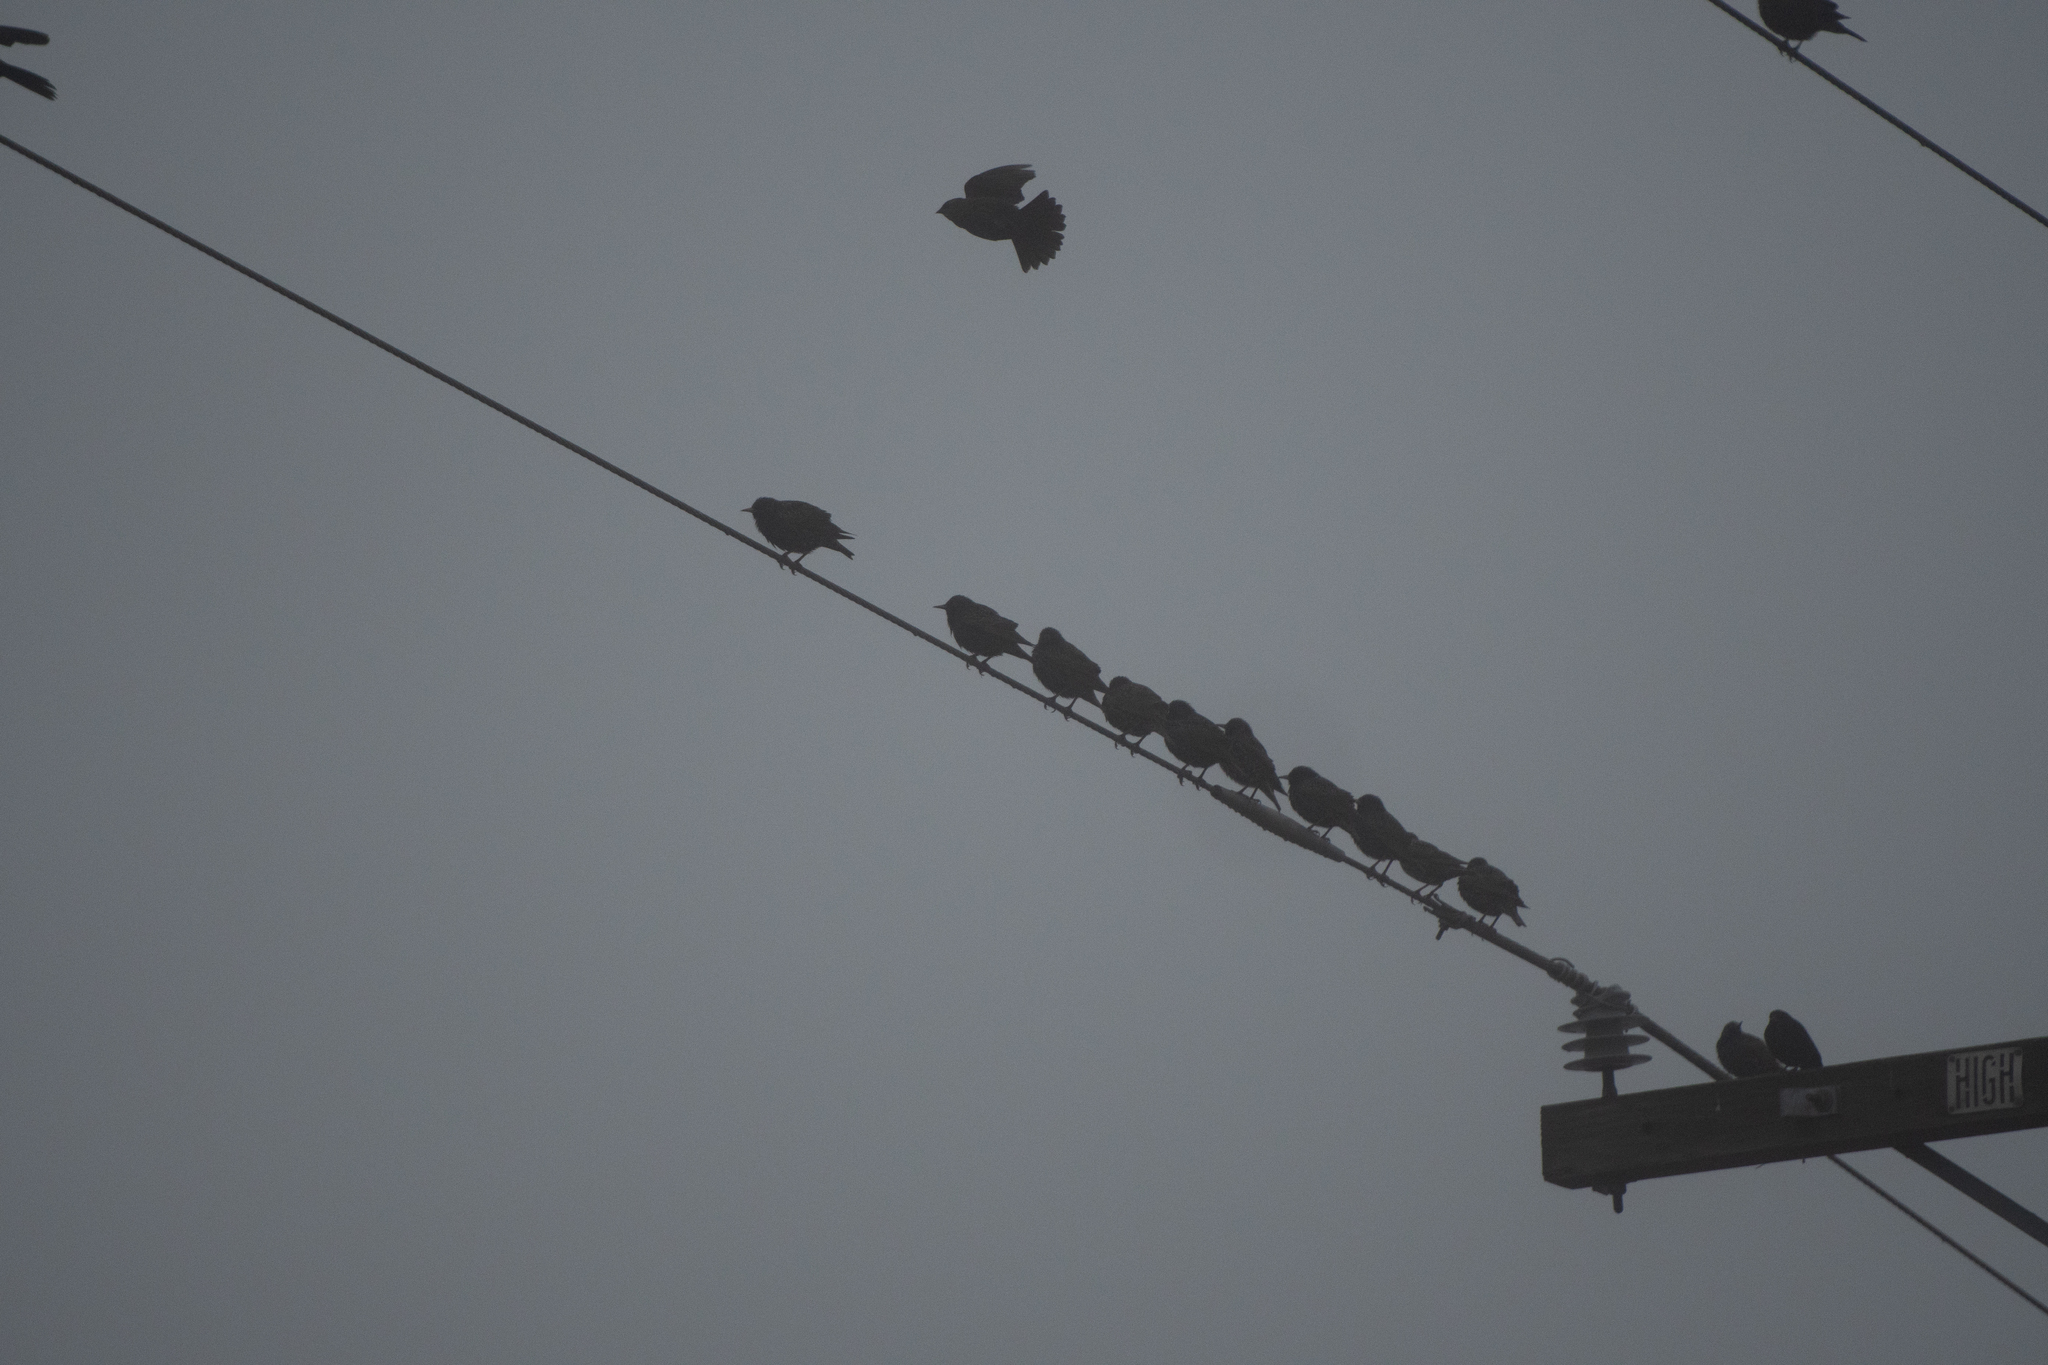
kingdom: Animalia
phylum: Chordata
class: Aves
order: Passeriformes
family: Sturnidae
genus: Sturnus
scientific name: Sturnus vulgaris
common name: Common starling
